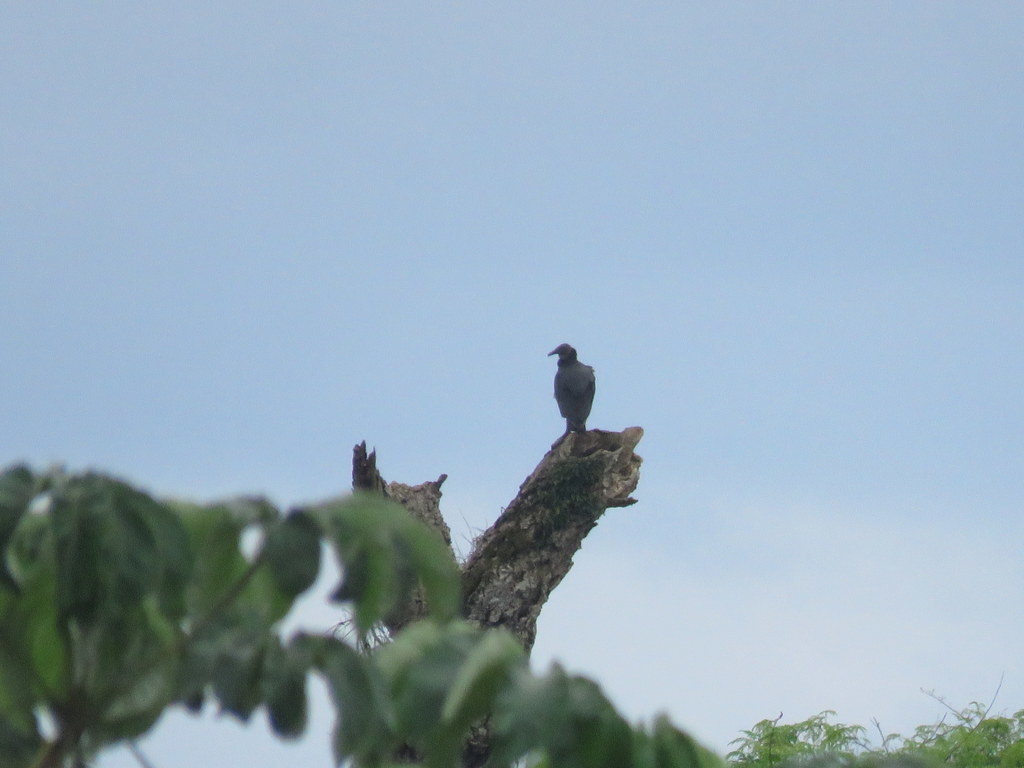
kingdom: Animalia
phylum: Chordata
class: Aves
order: Accipitriformes
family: Cathartidae
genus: Coragyps
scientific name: Coragyps atratus
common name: Black vulture
